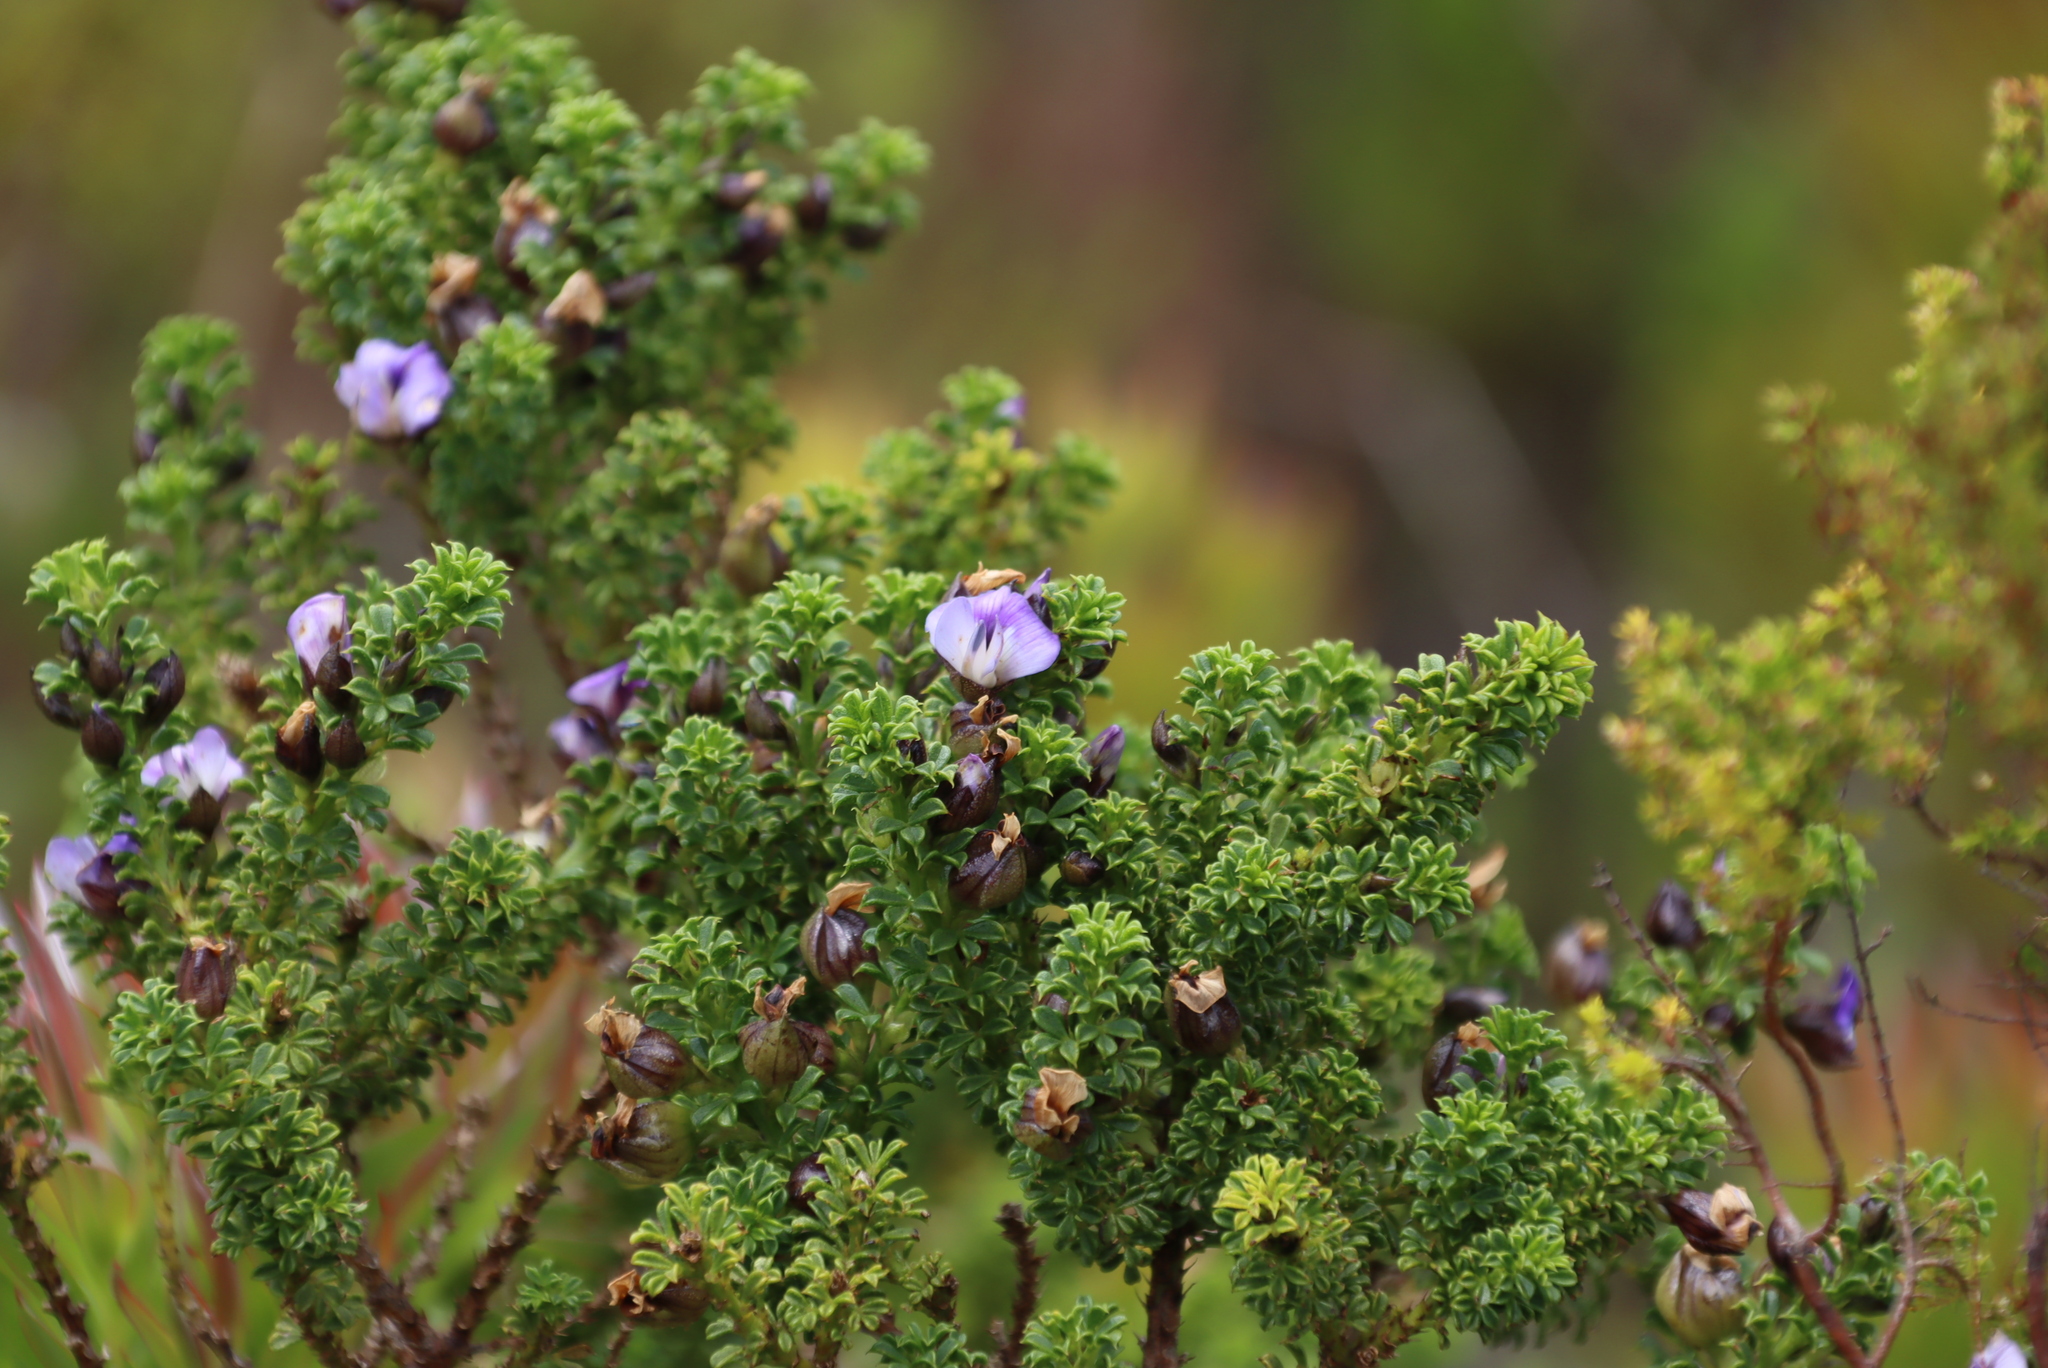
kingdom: Plantae
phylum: Tracheophyta
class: Magnoliopsida
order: Fabales
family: Fabaceae
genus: Psoralea
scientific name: Psoralea aculeata
